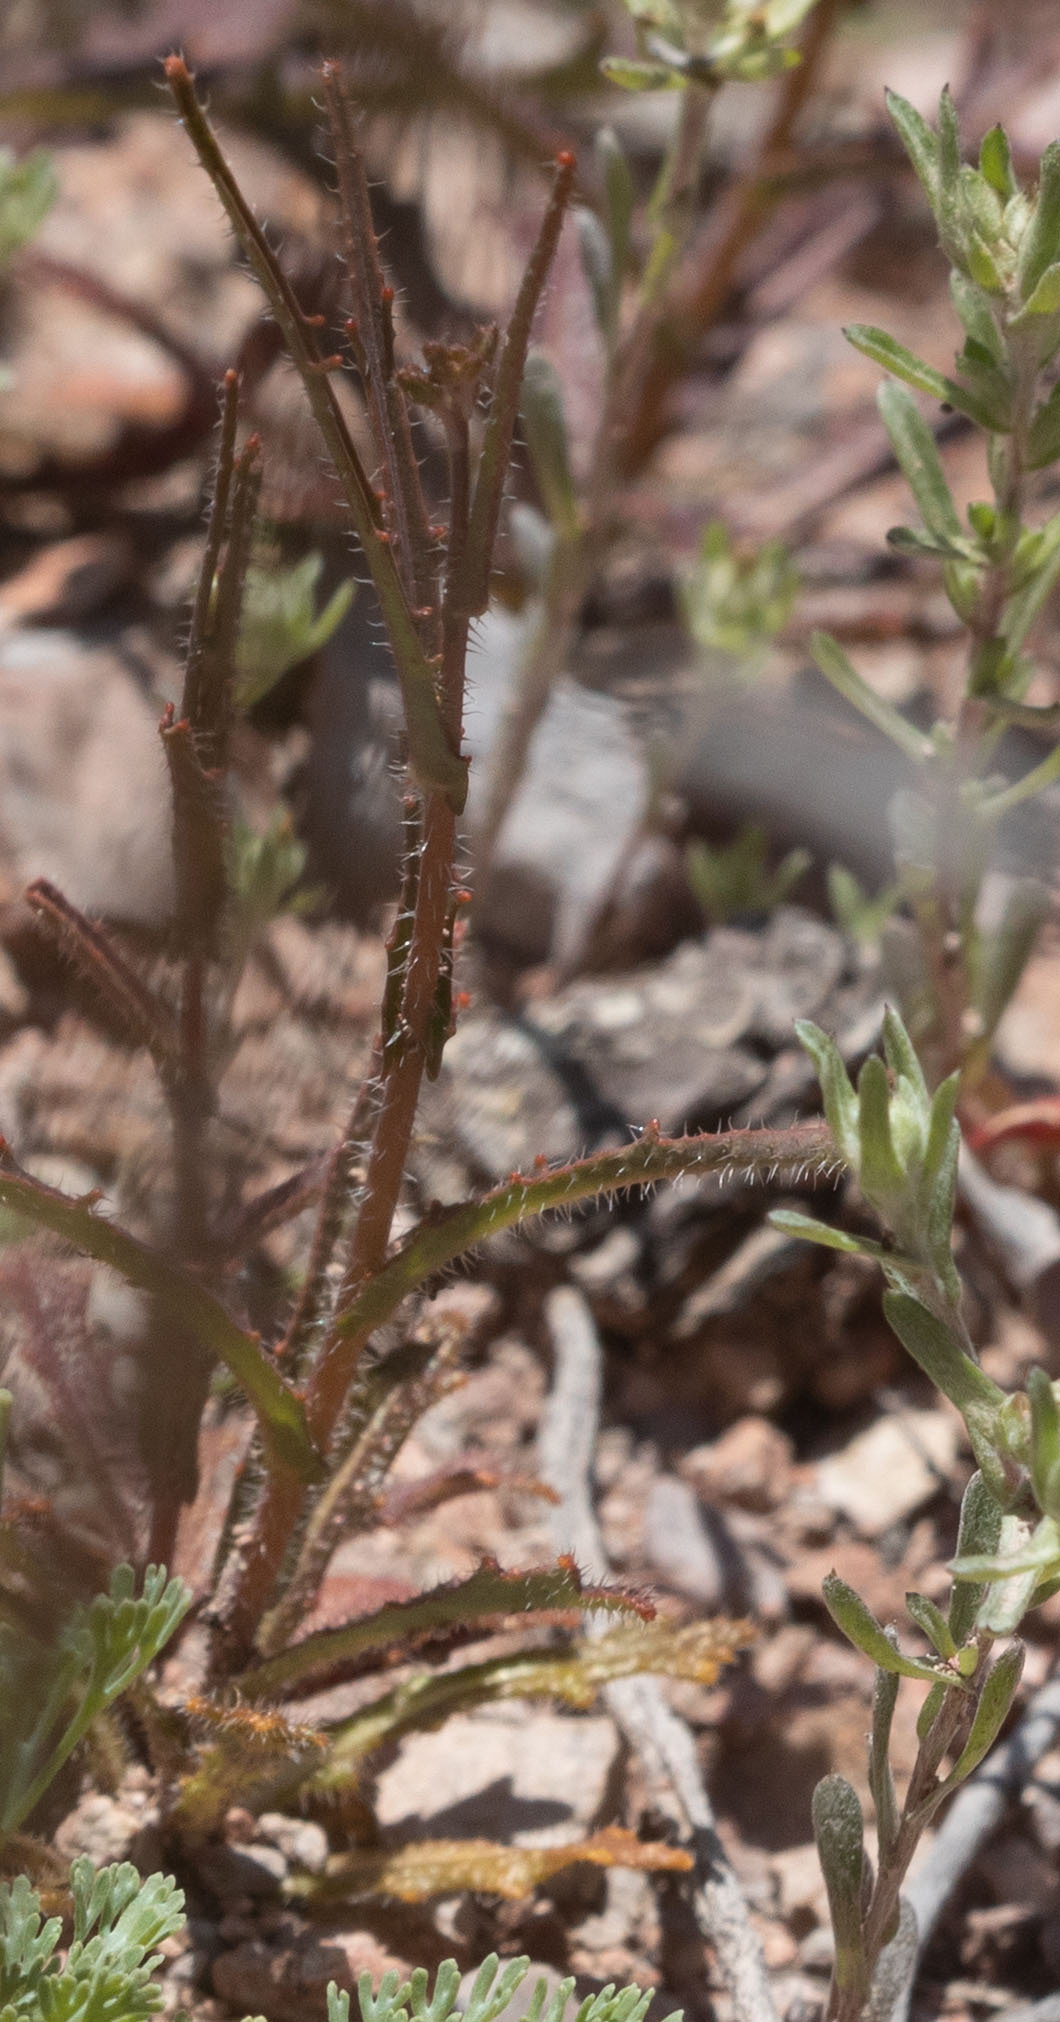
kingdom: Plantae
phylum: Tracheophyta
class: Magnoliopsida
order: Brassicales
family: Brassicaceae
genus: Streptanthus
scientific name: Streptanthus glandulosus
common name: Jewel-flower
